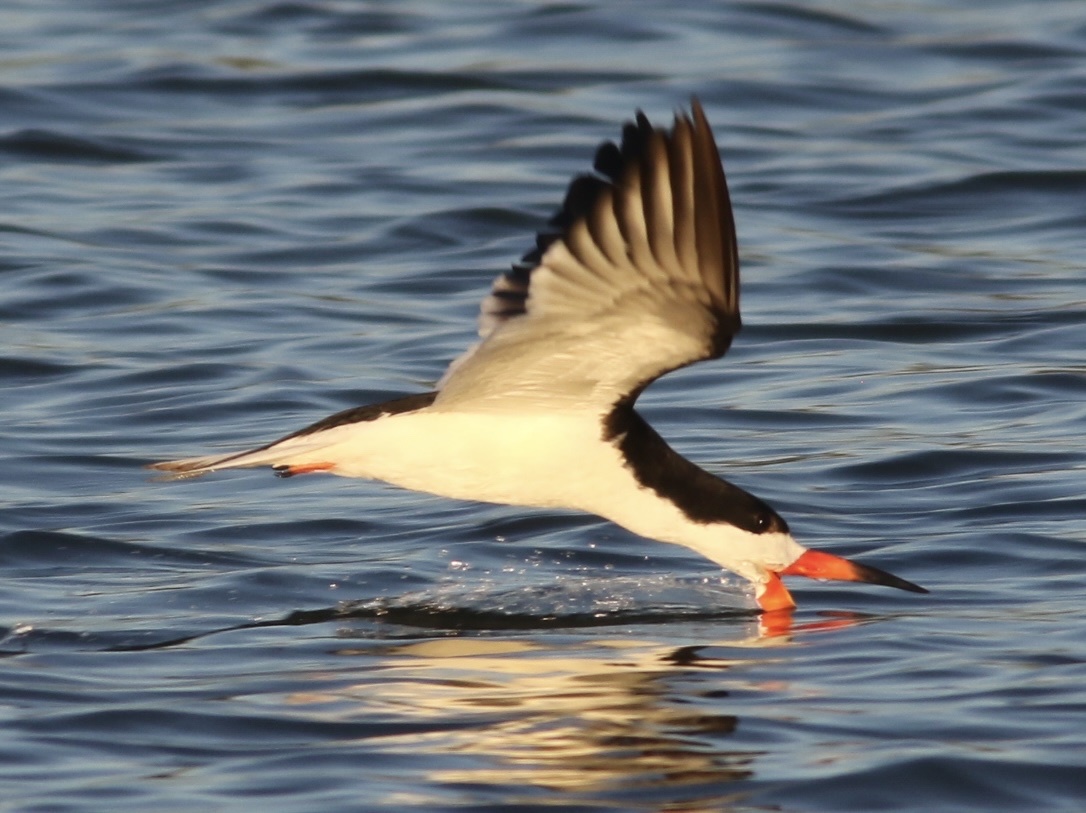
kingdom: Animalia
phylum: Chordata
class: Aves
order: Charadriiformes
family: Laridae
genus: Rynchops
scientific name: Rynchops niger
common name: Black skimmer
